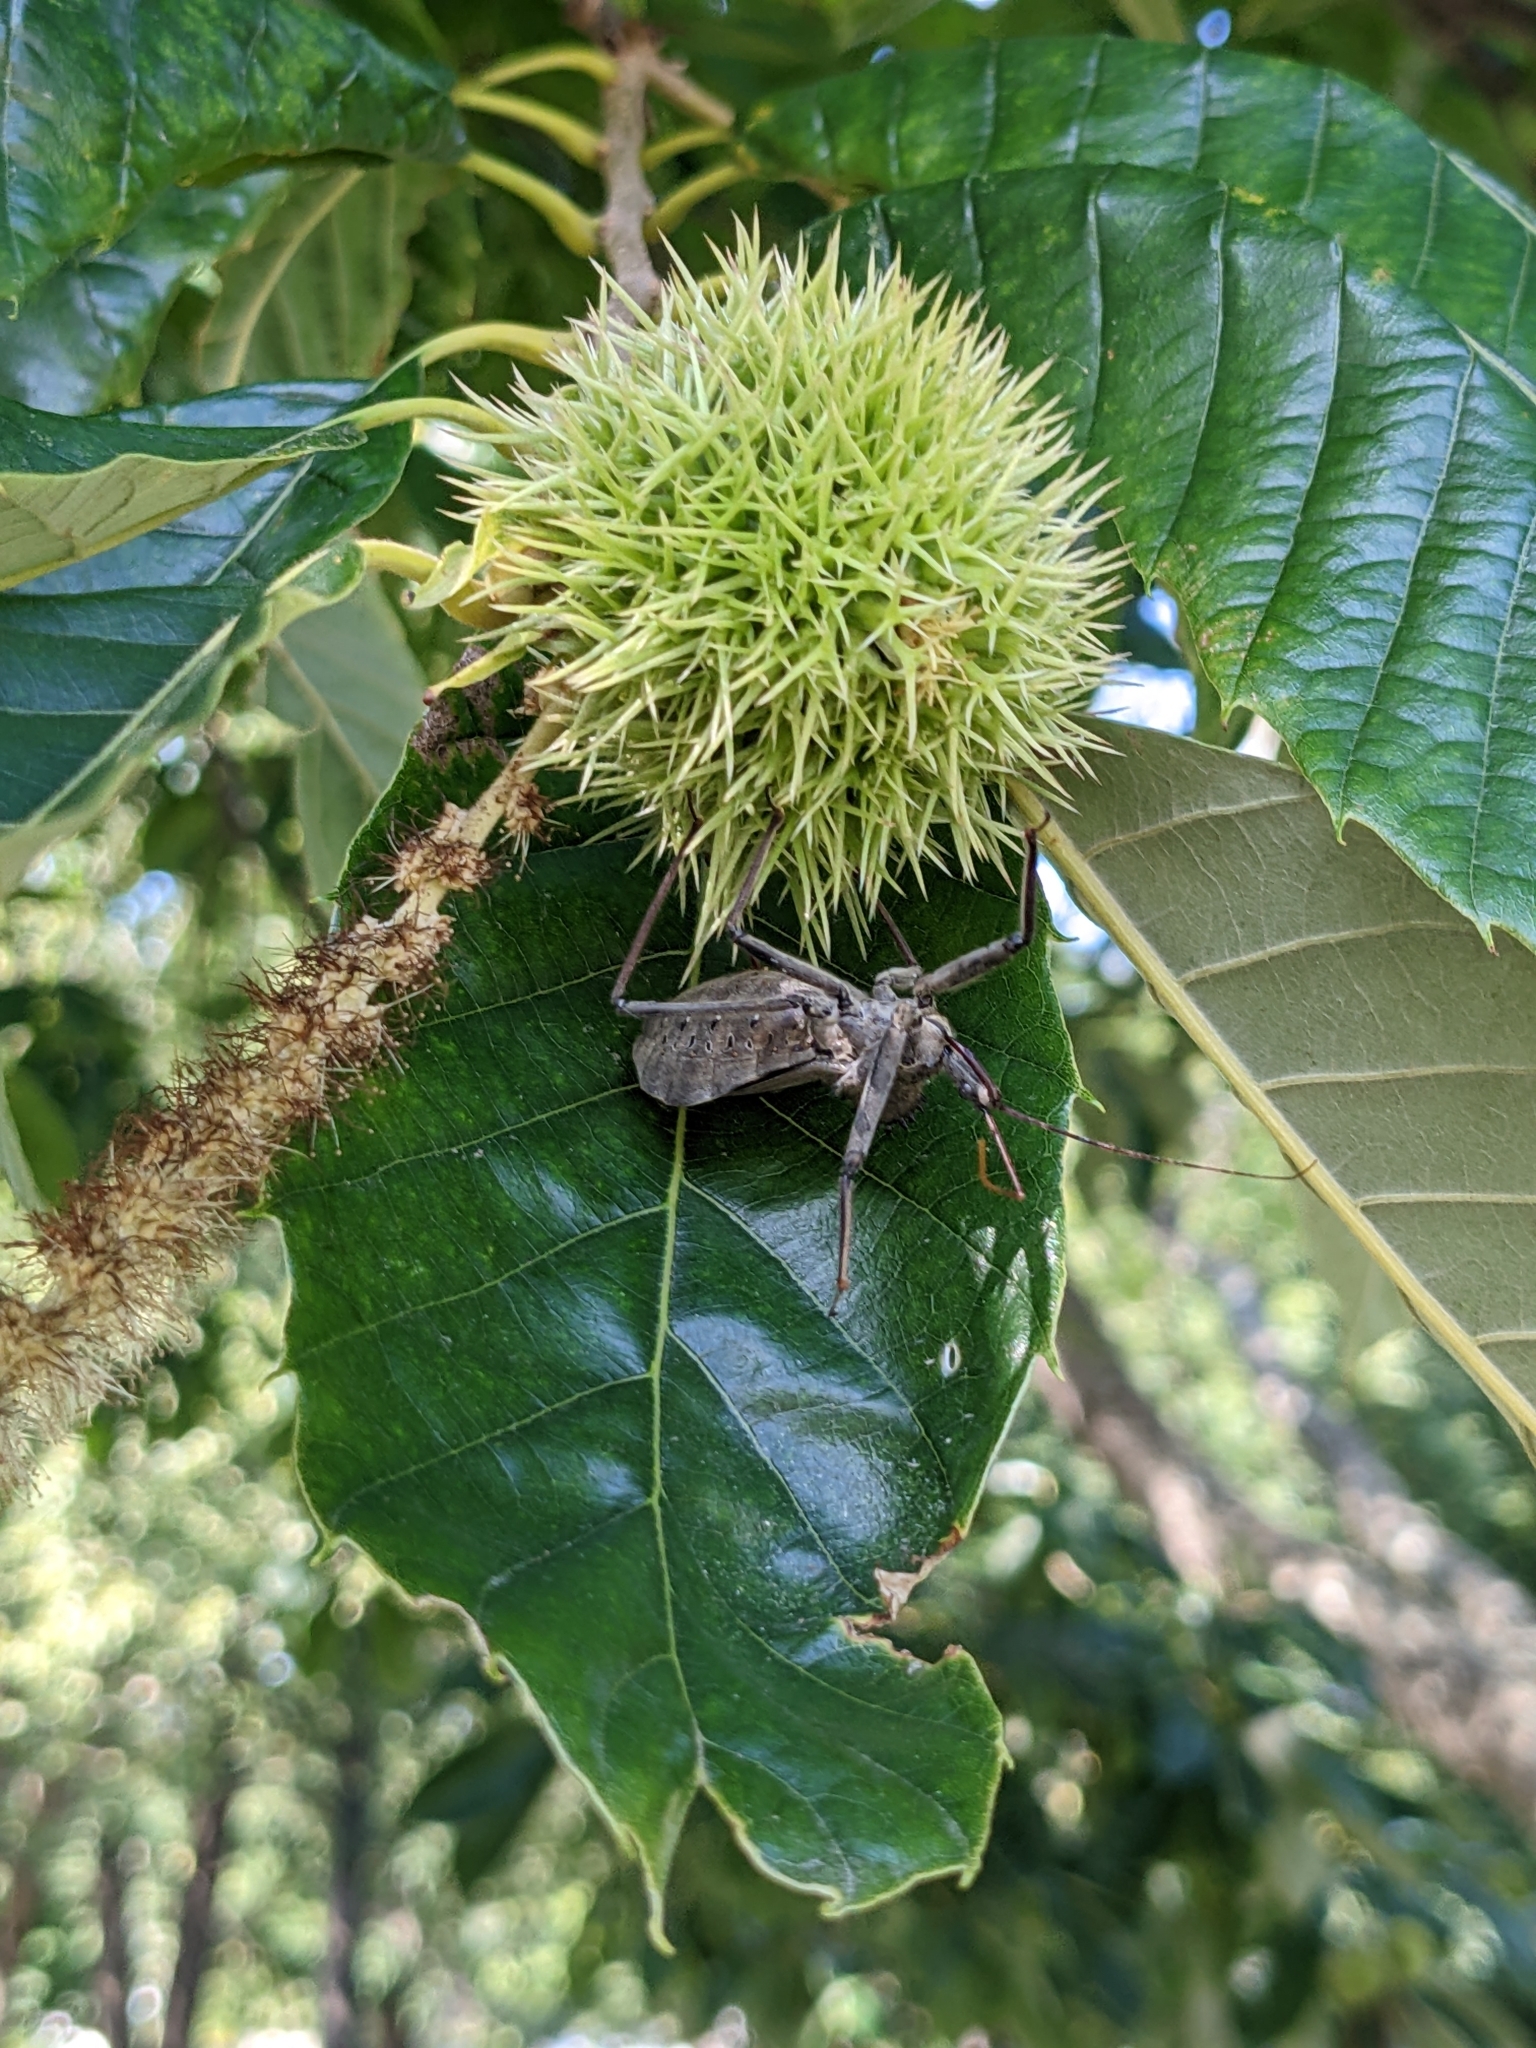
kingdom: Animalia
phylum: Arthropoda
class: Insecta
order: Hemiptera
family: Reduviidae
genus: Arilus
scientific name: Arilus cristatus
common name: North american wheel bug
